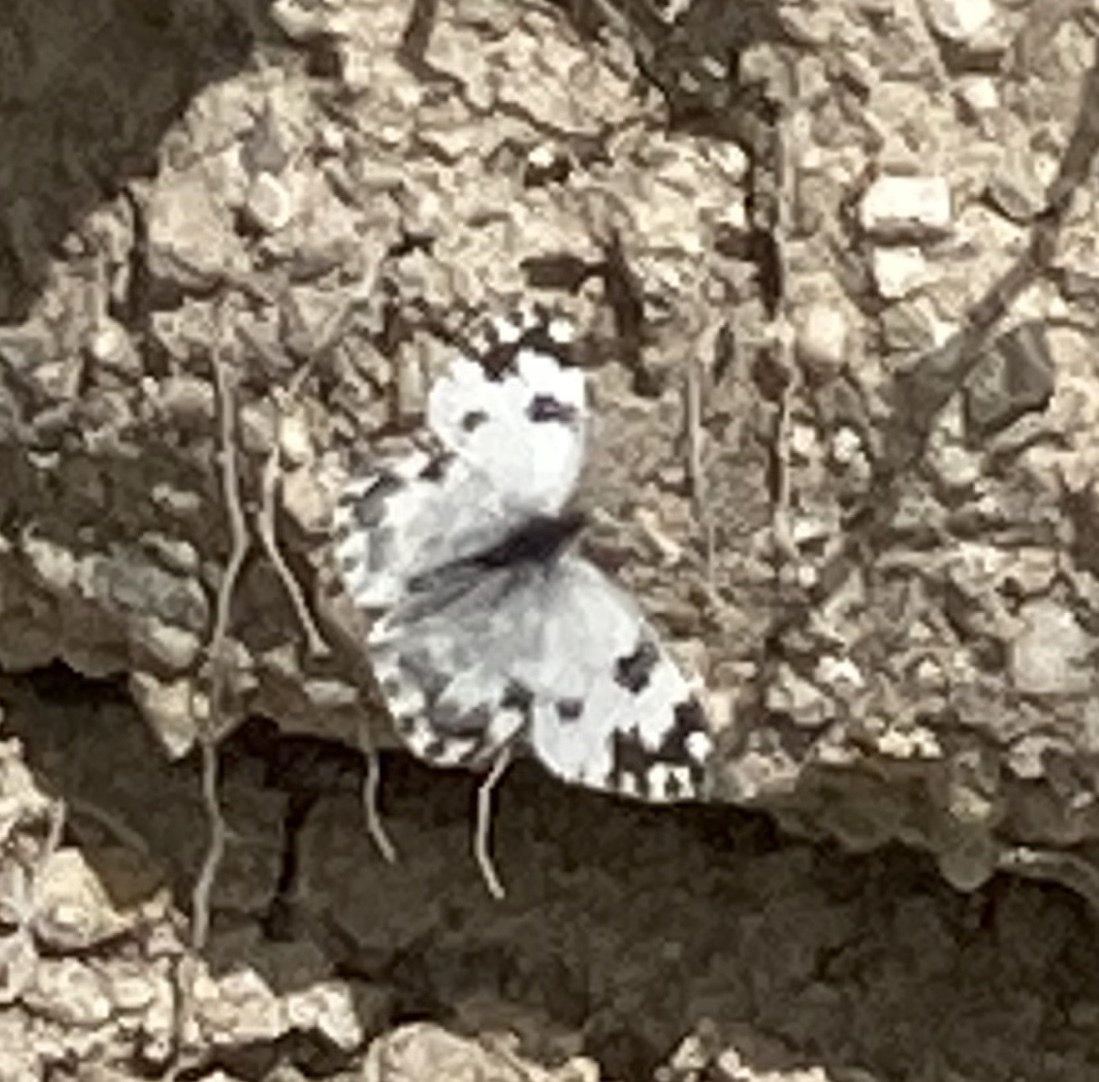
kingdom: Animalia
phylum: Arthropoda
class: Insecta
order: Lepidoptera
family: Pieridae
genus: Pontia
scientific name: Pontia edusa
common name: Eastern bath white
